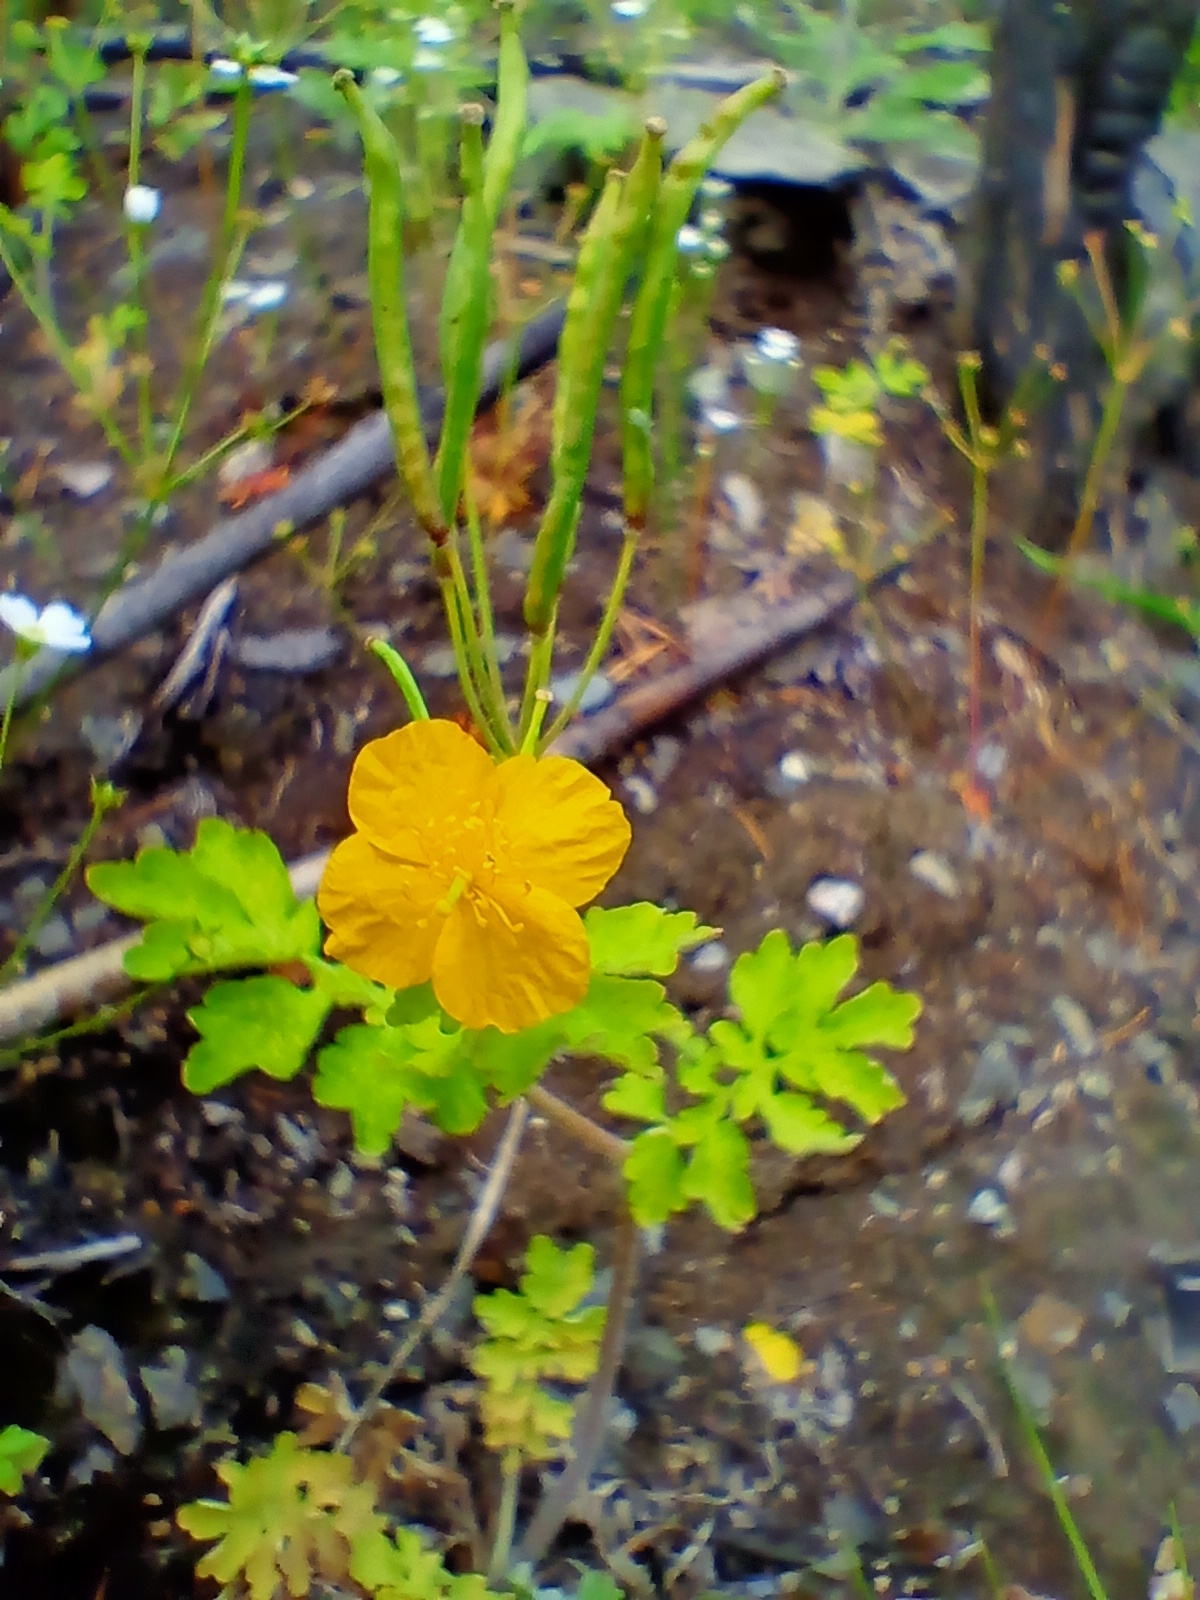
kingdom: Plantae
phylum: Tracheophyta
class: Magnoliopsida
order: Ranunculales
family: Papaveraceae
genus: Chelidonium
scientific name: Chelidonium majus
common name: Greater celandine
